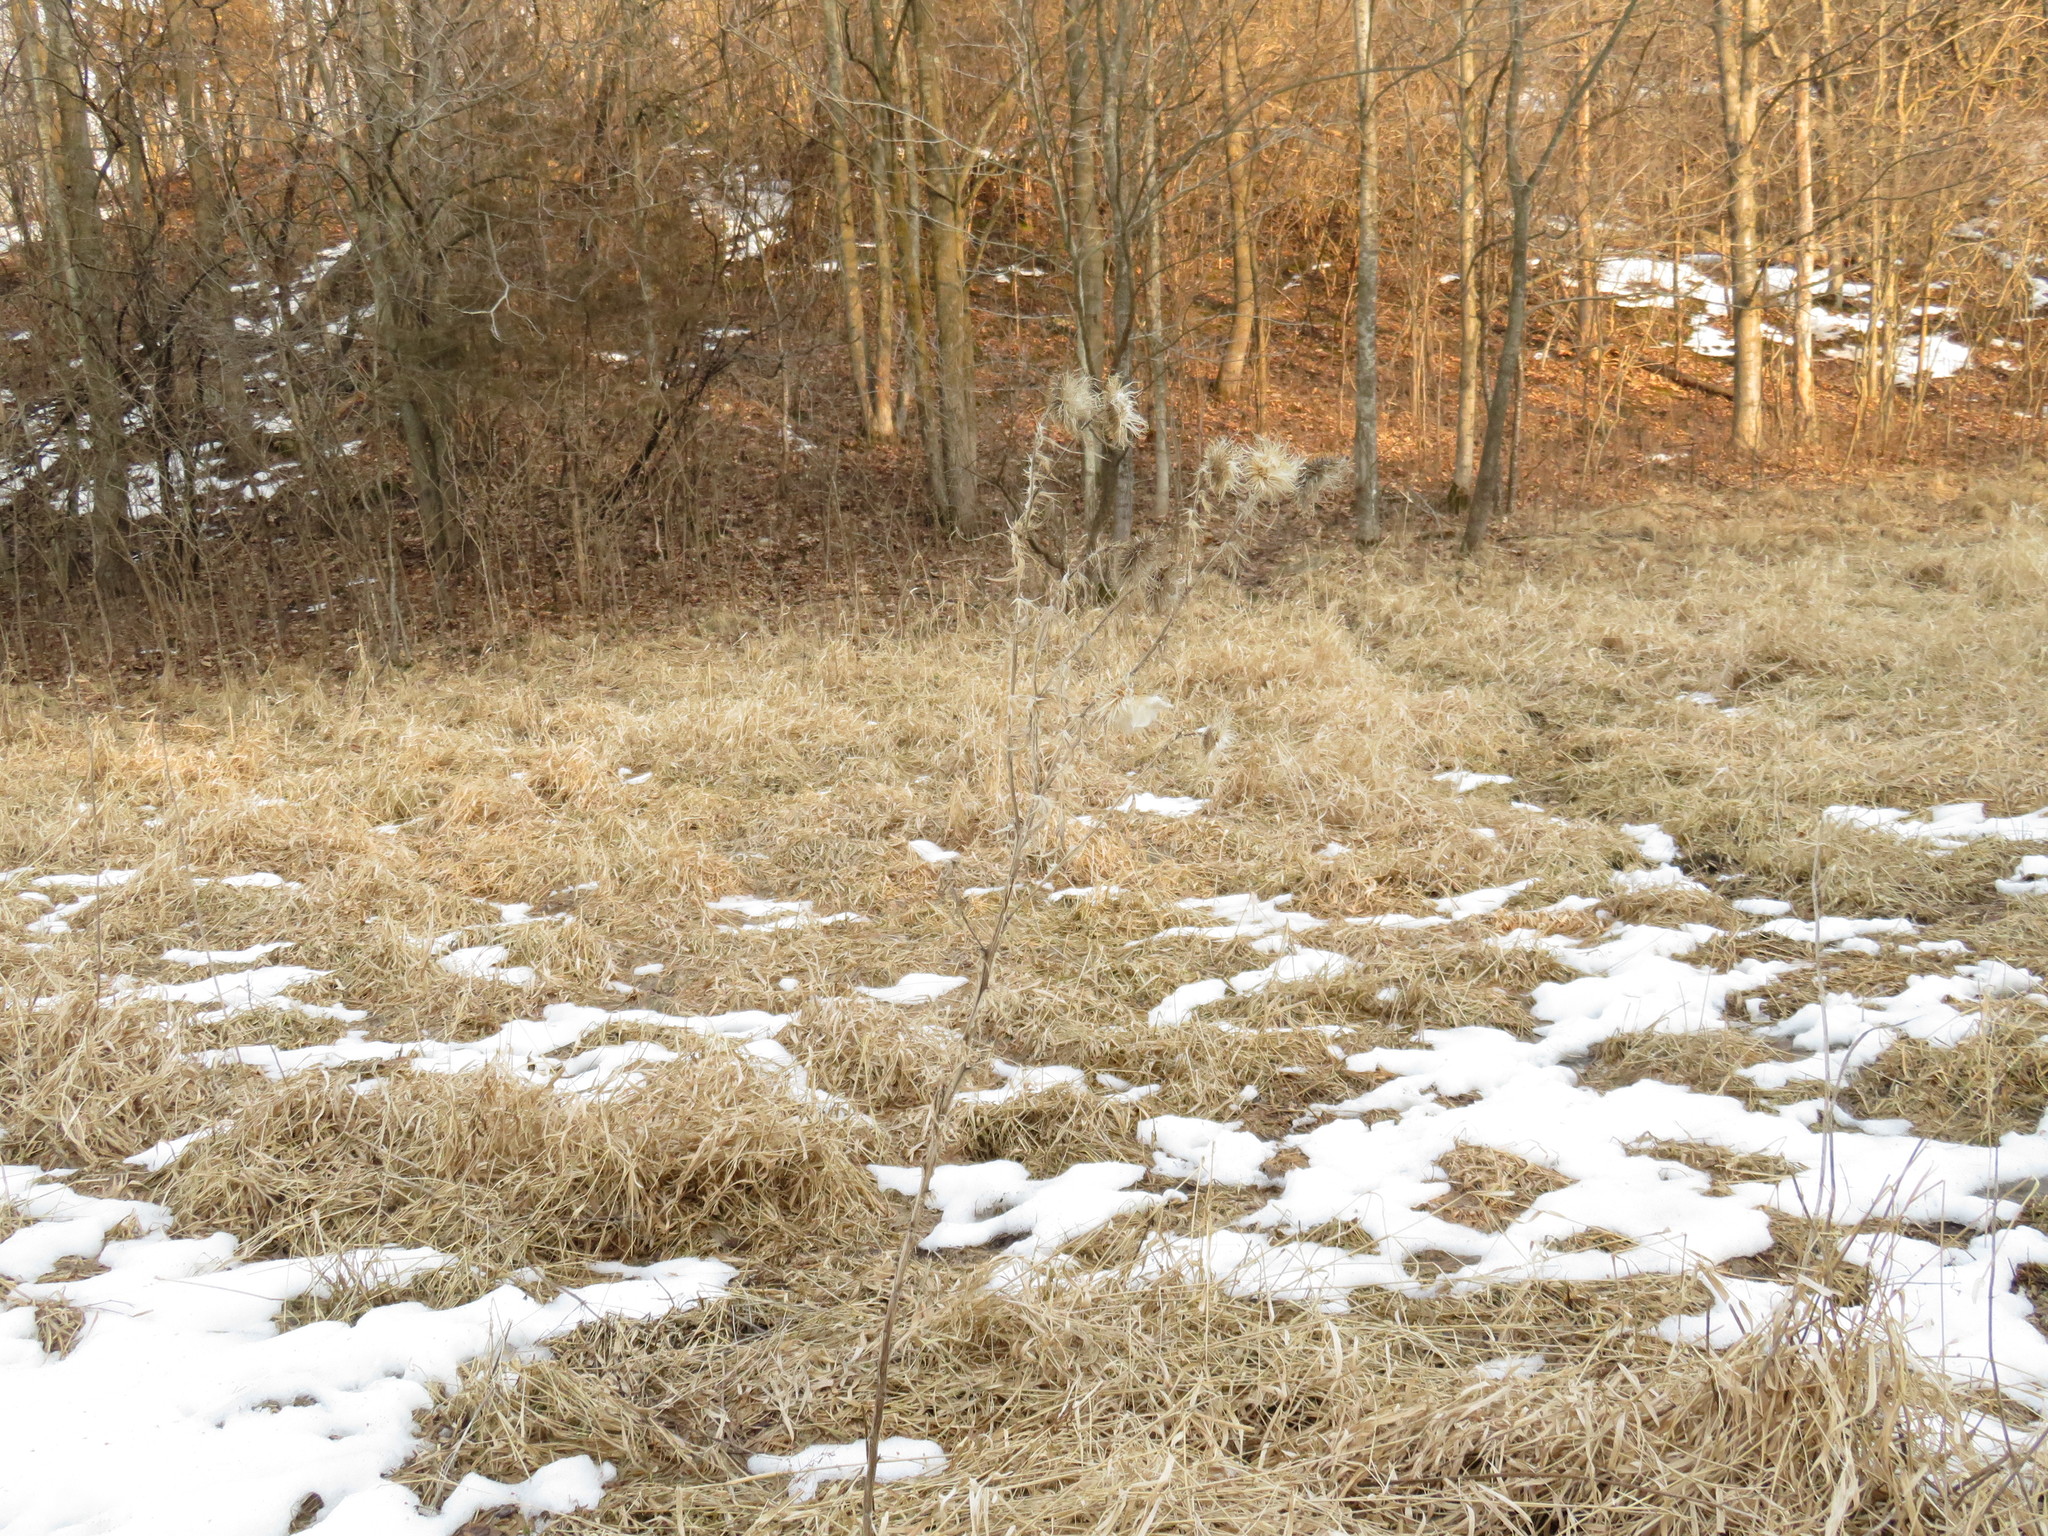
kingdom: Plantae
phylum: Tracheophyta
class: Magnoliopsida
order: Asterales
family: Asteraceae
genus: Cirsium
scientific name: Cirsium vulgare
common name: Bull thistle
